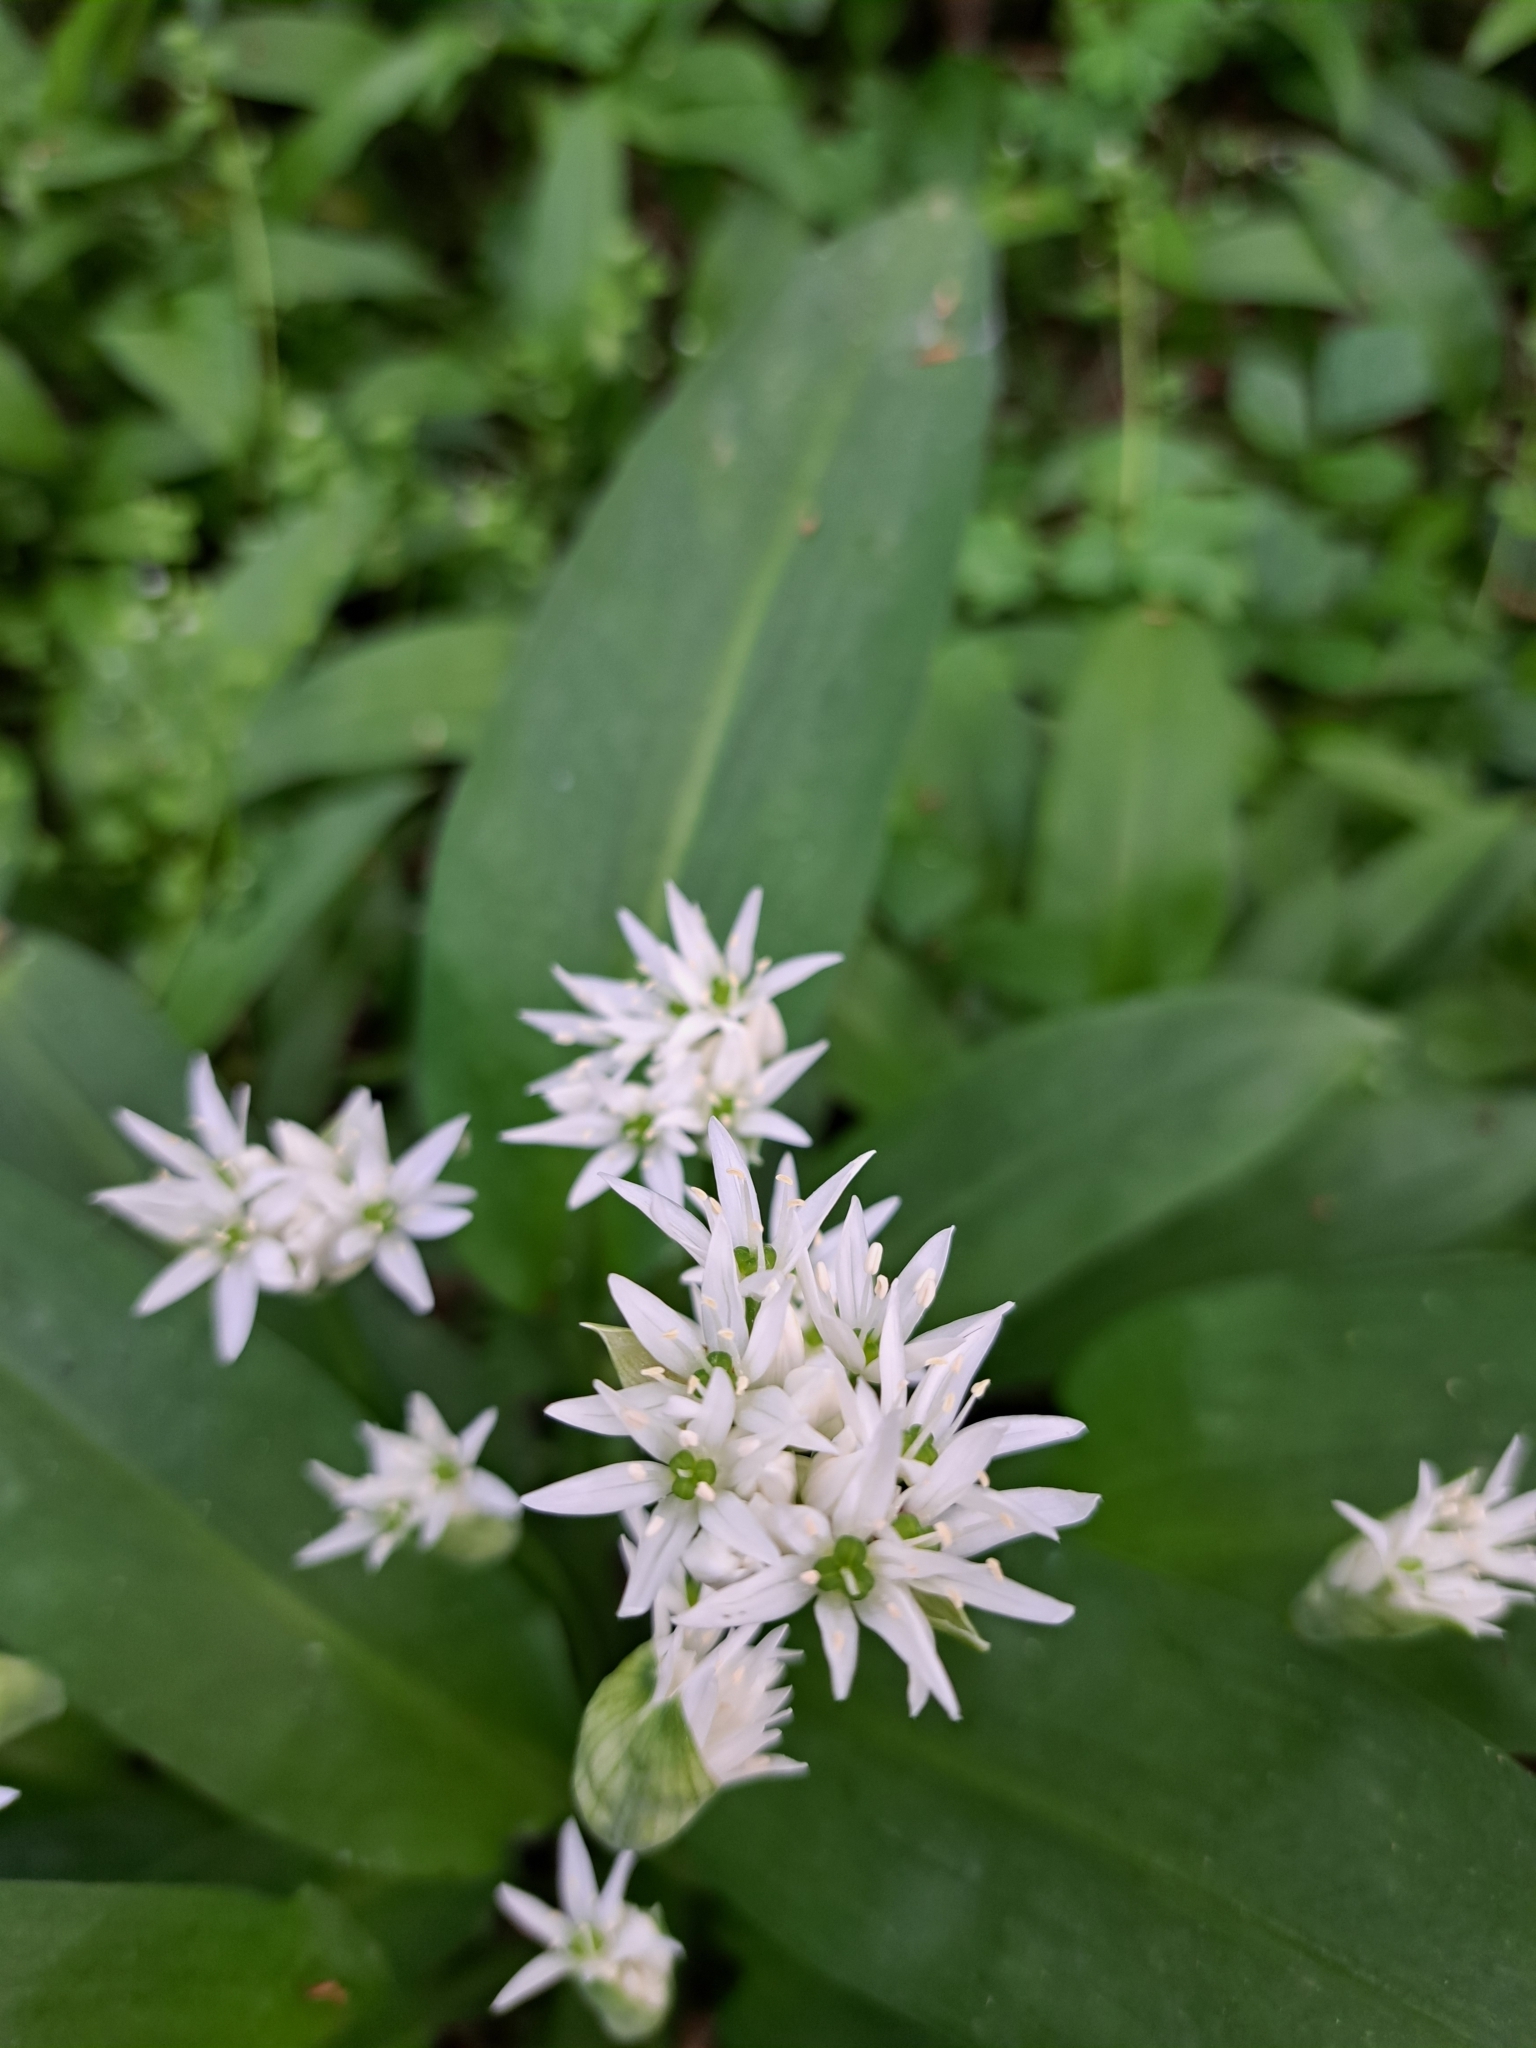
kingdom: Plantae
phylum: Tracheophyta
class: Liliopsida
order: Asparagales
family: Amaryllidaceae
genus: Allium
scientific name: Allium ursinum
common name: Ramsons
